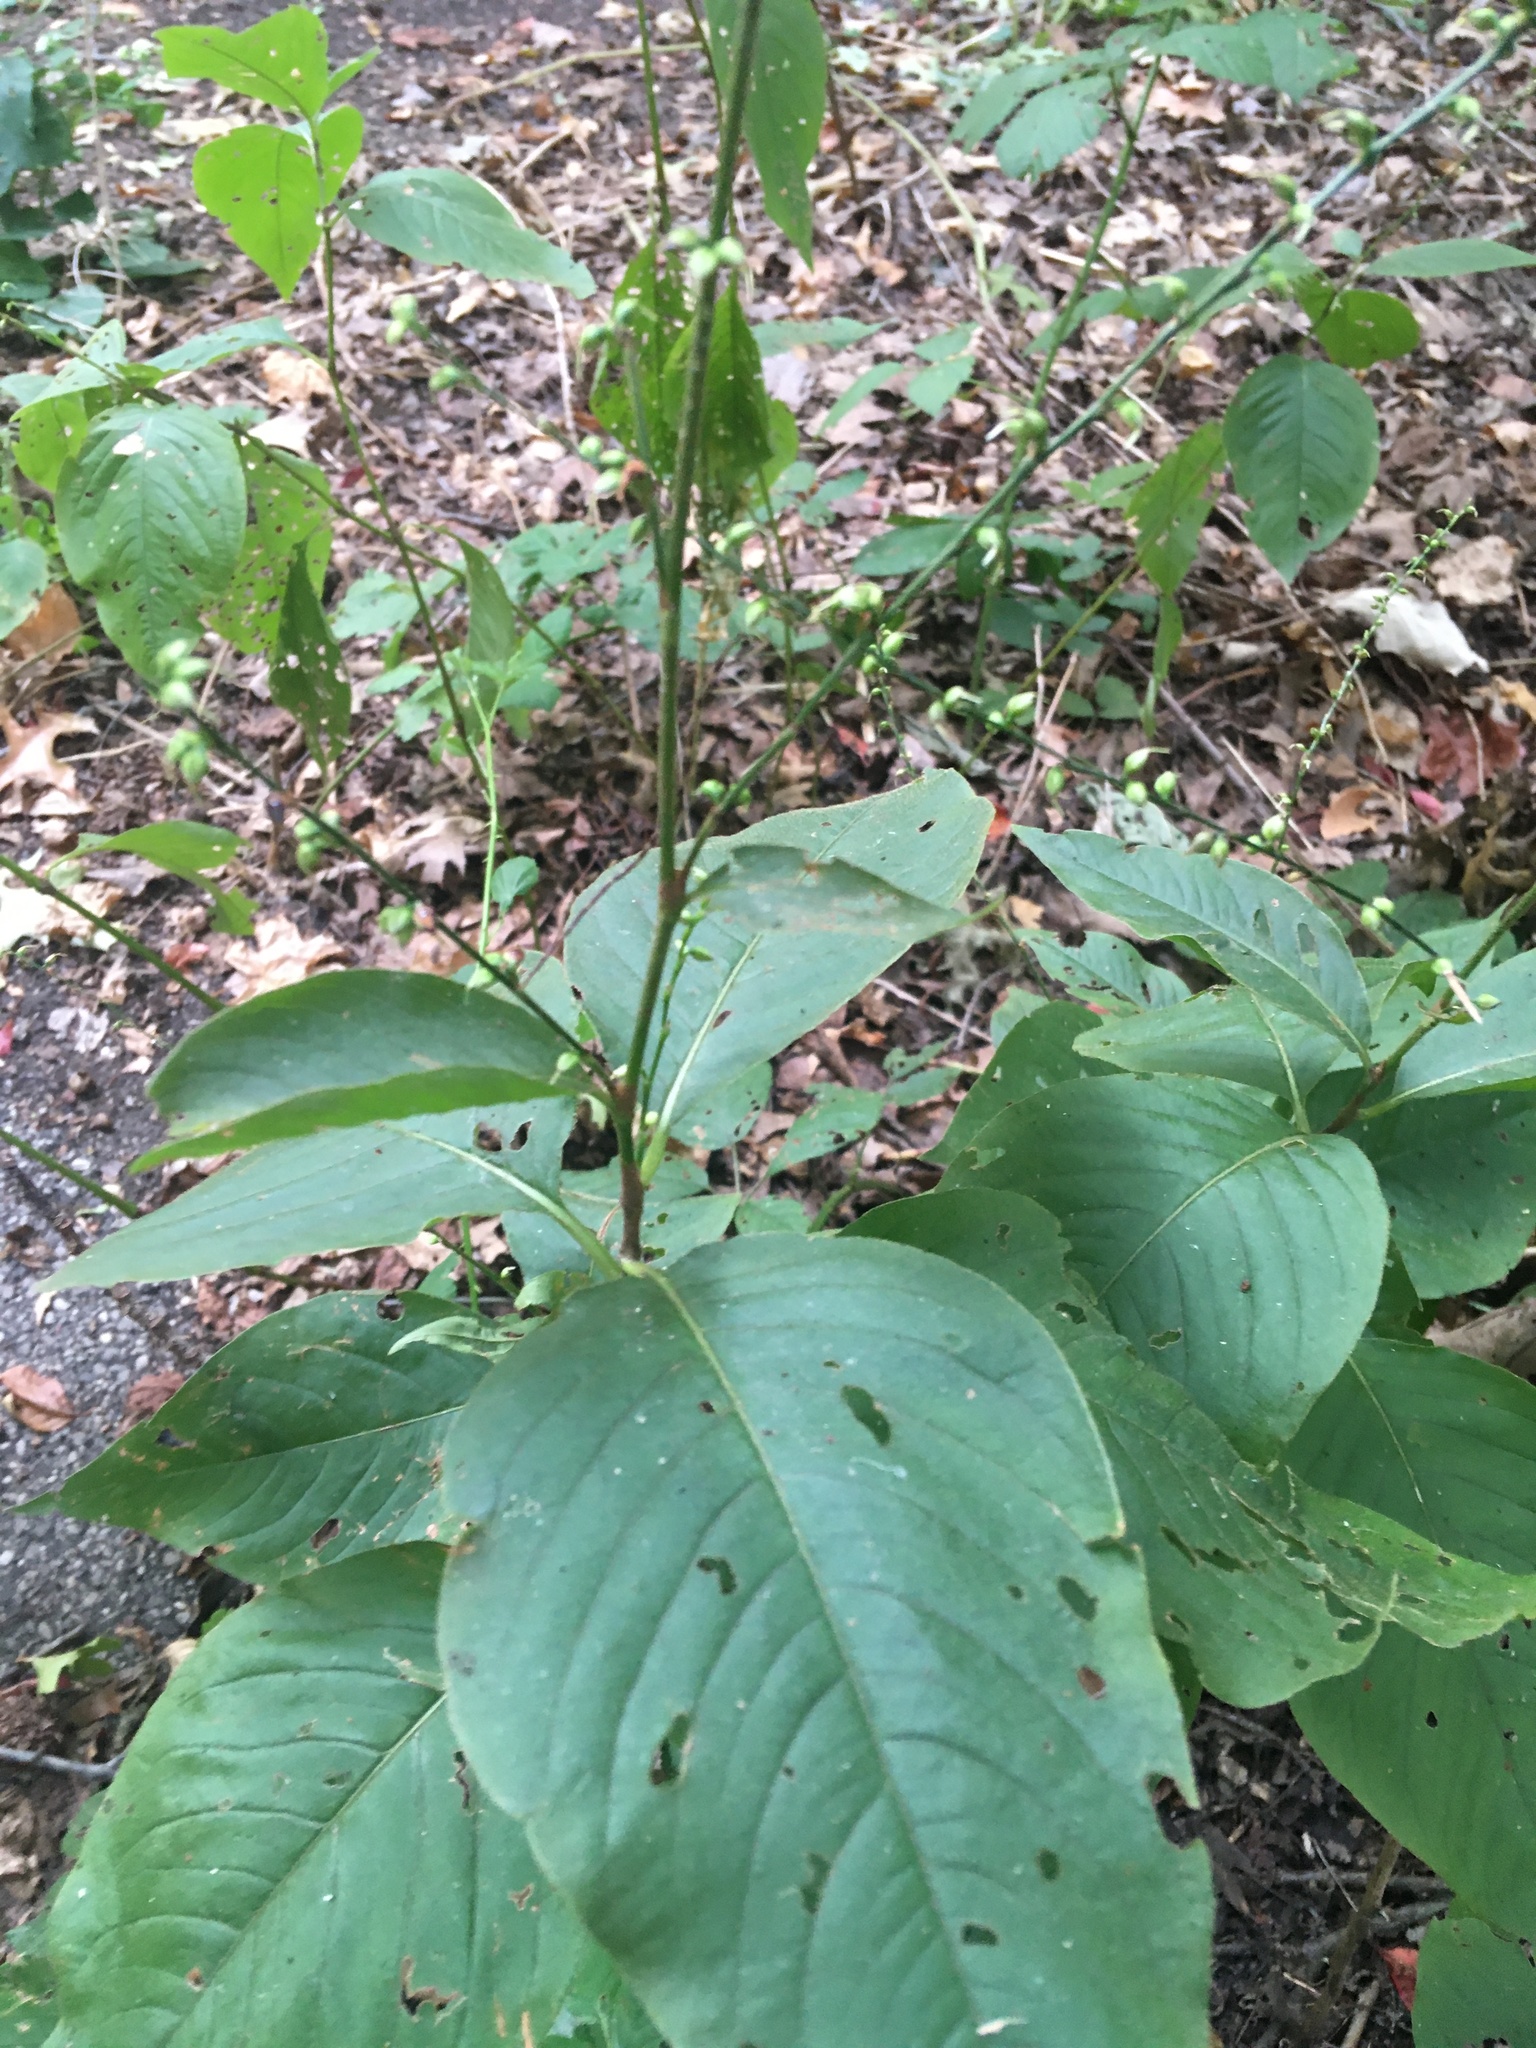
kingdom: Plantae
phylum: Tracheophyta
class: Magnoliopsida
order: Caryophyllales
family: Polygonaceae
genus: Persicaria
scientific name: Persicaria virginiana
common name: Jumpseed
